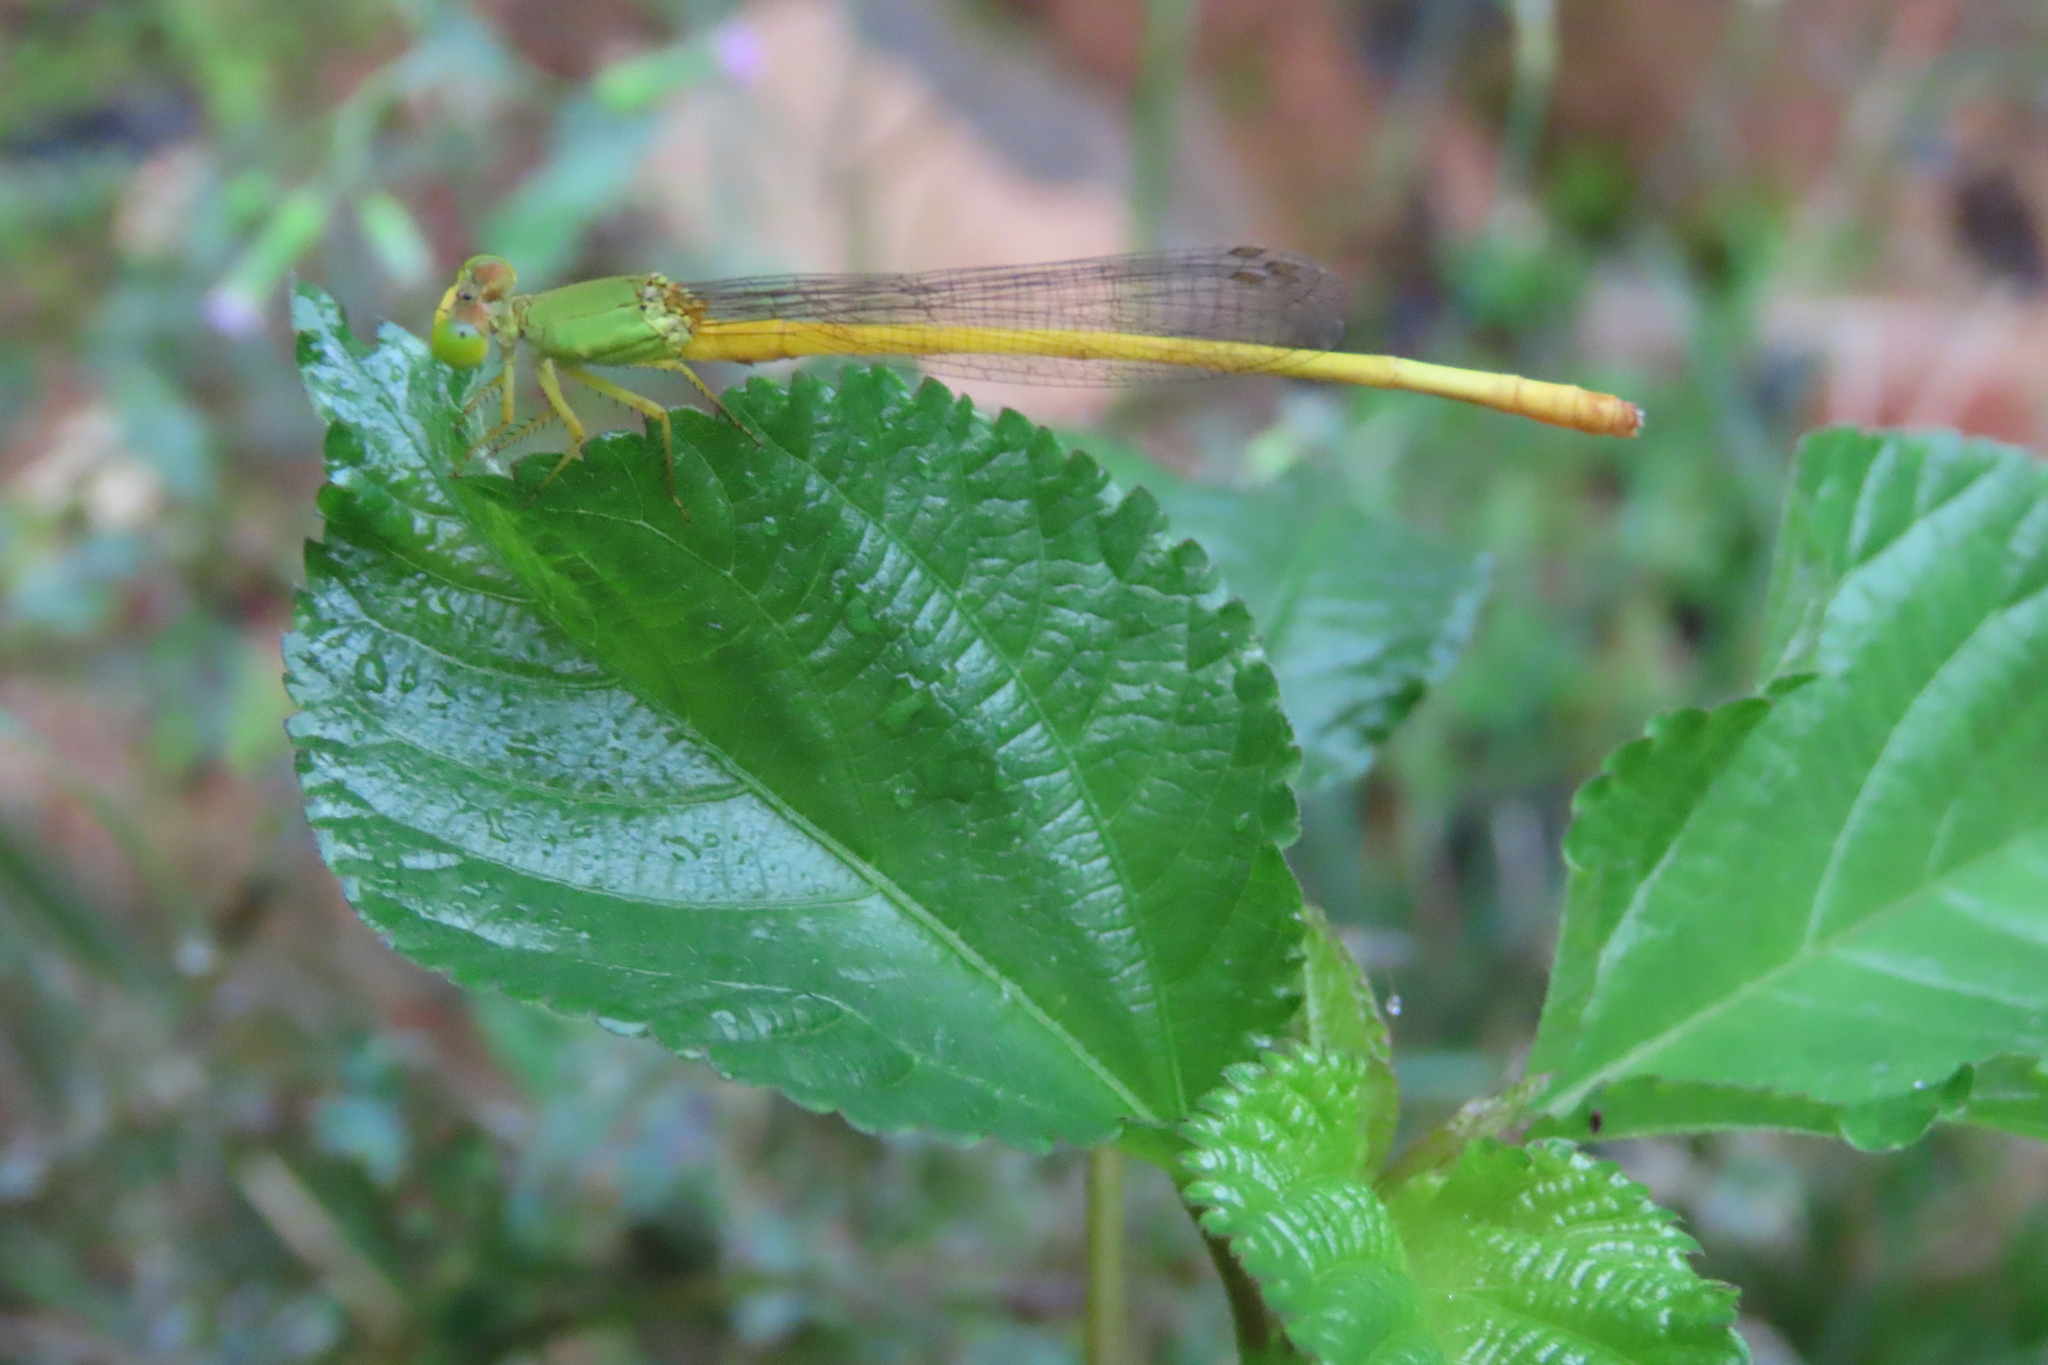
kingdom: Animalia
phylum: Arthropoda
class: Insecta
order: Odonata
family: Coenagrionidae
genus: Ceriagrion
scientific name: Ceriagrion coromandelianum
